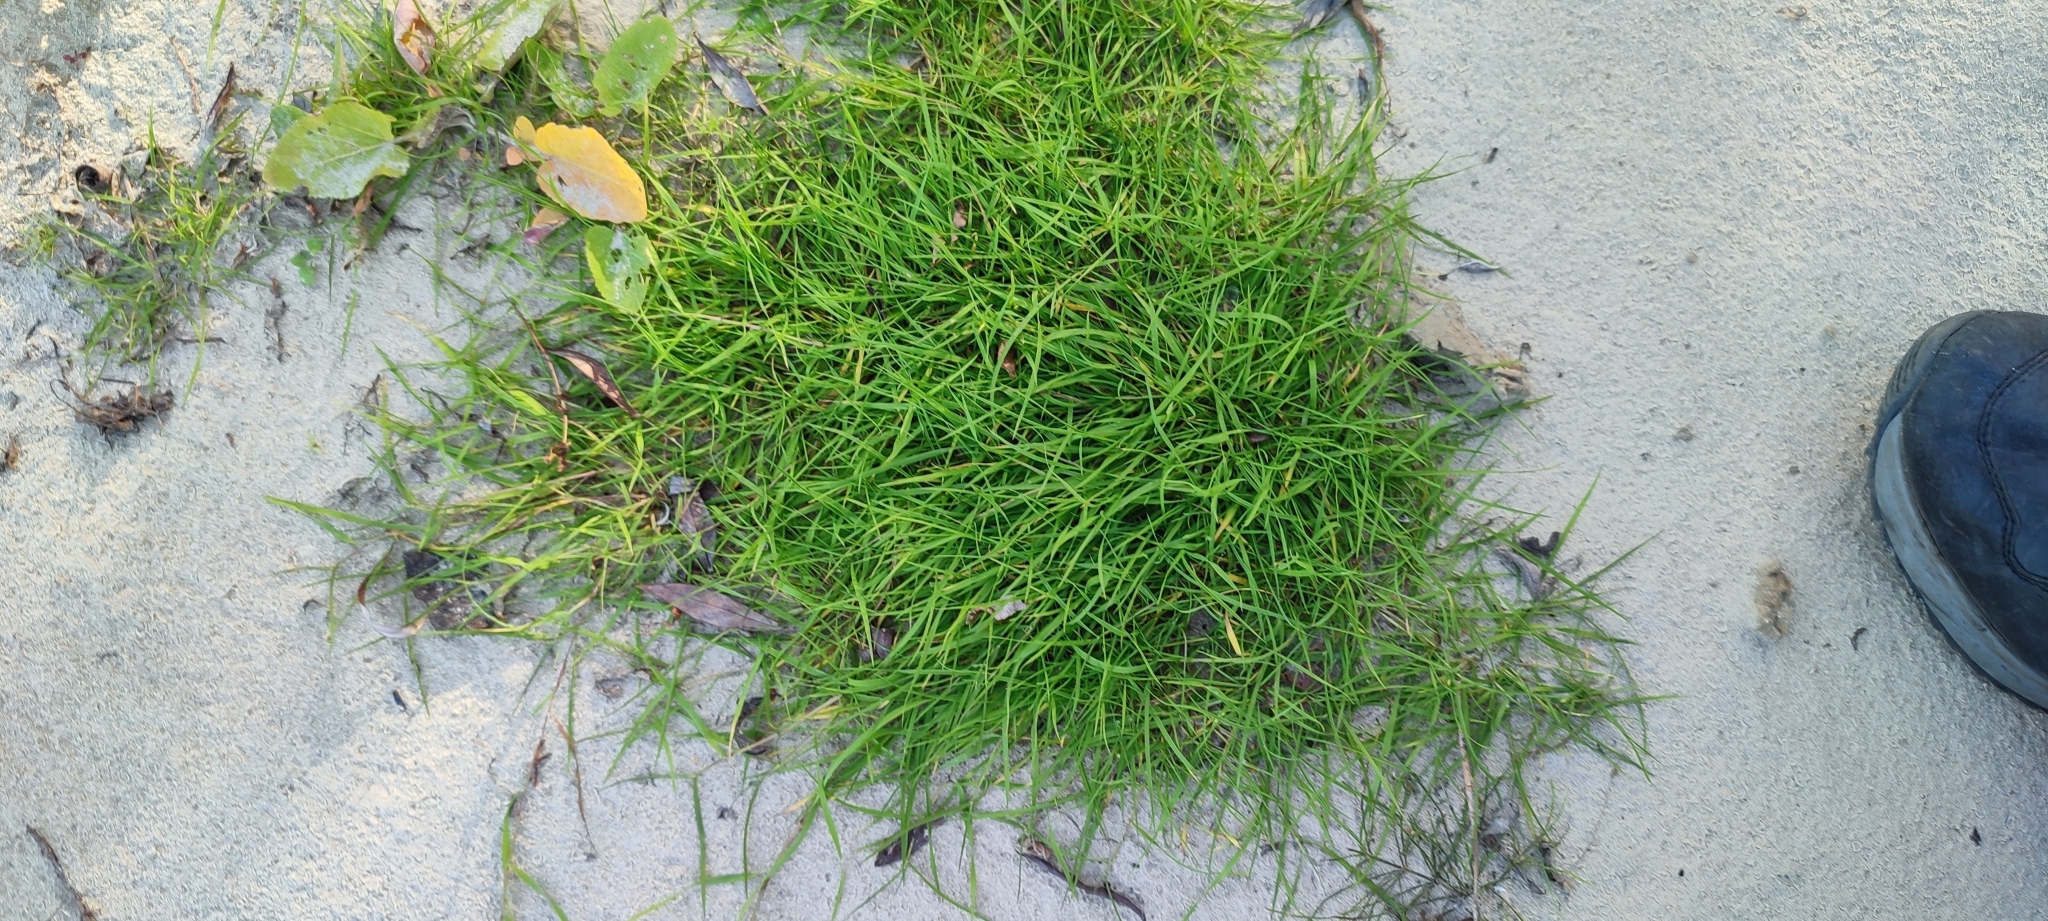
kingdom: Plantae
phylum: Tracheophyta
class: Liliopsida
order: Poales
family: Poaceae
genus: Agrostis
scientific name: Agrostis stolonifera
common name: Creeping bentgrass
